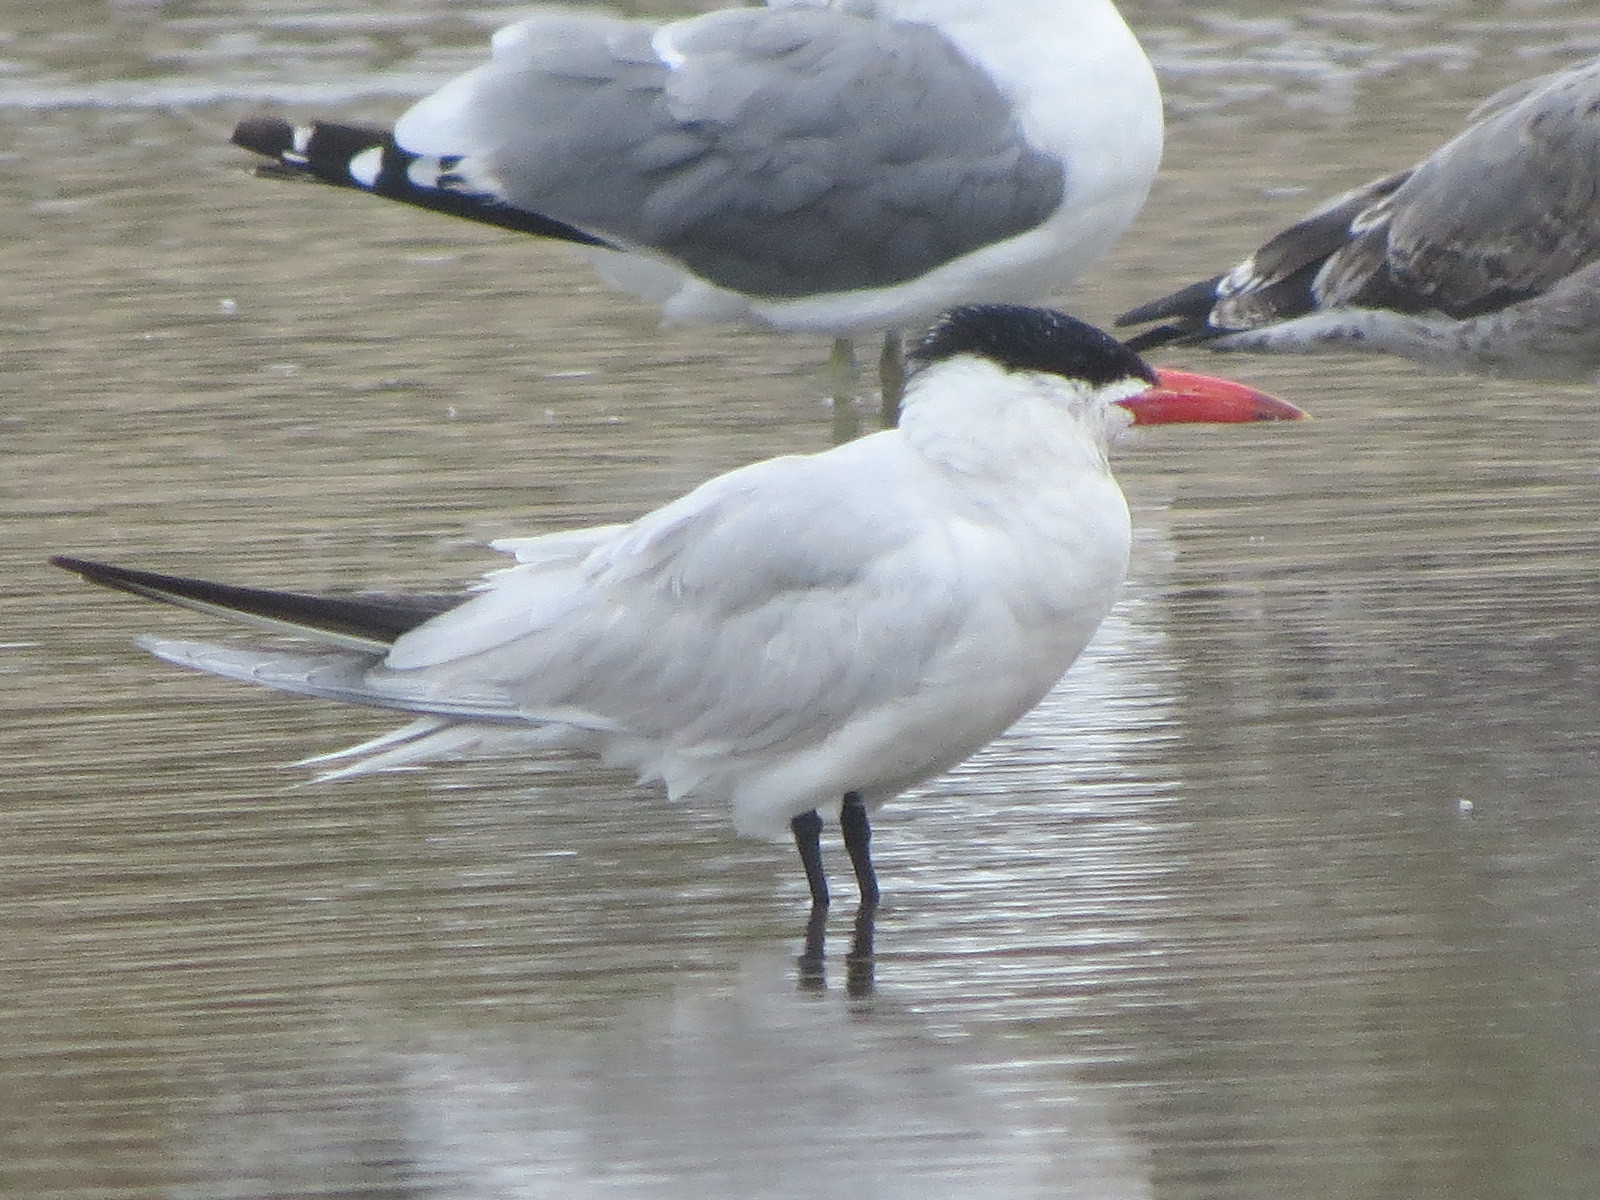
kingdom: Animalia
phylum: Chordata
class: Aves
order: Charadriiformes
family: Laridae
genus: Hydroprogne
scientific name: Hydroprogne caspia
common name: Caspian tern
